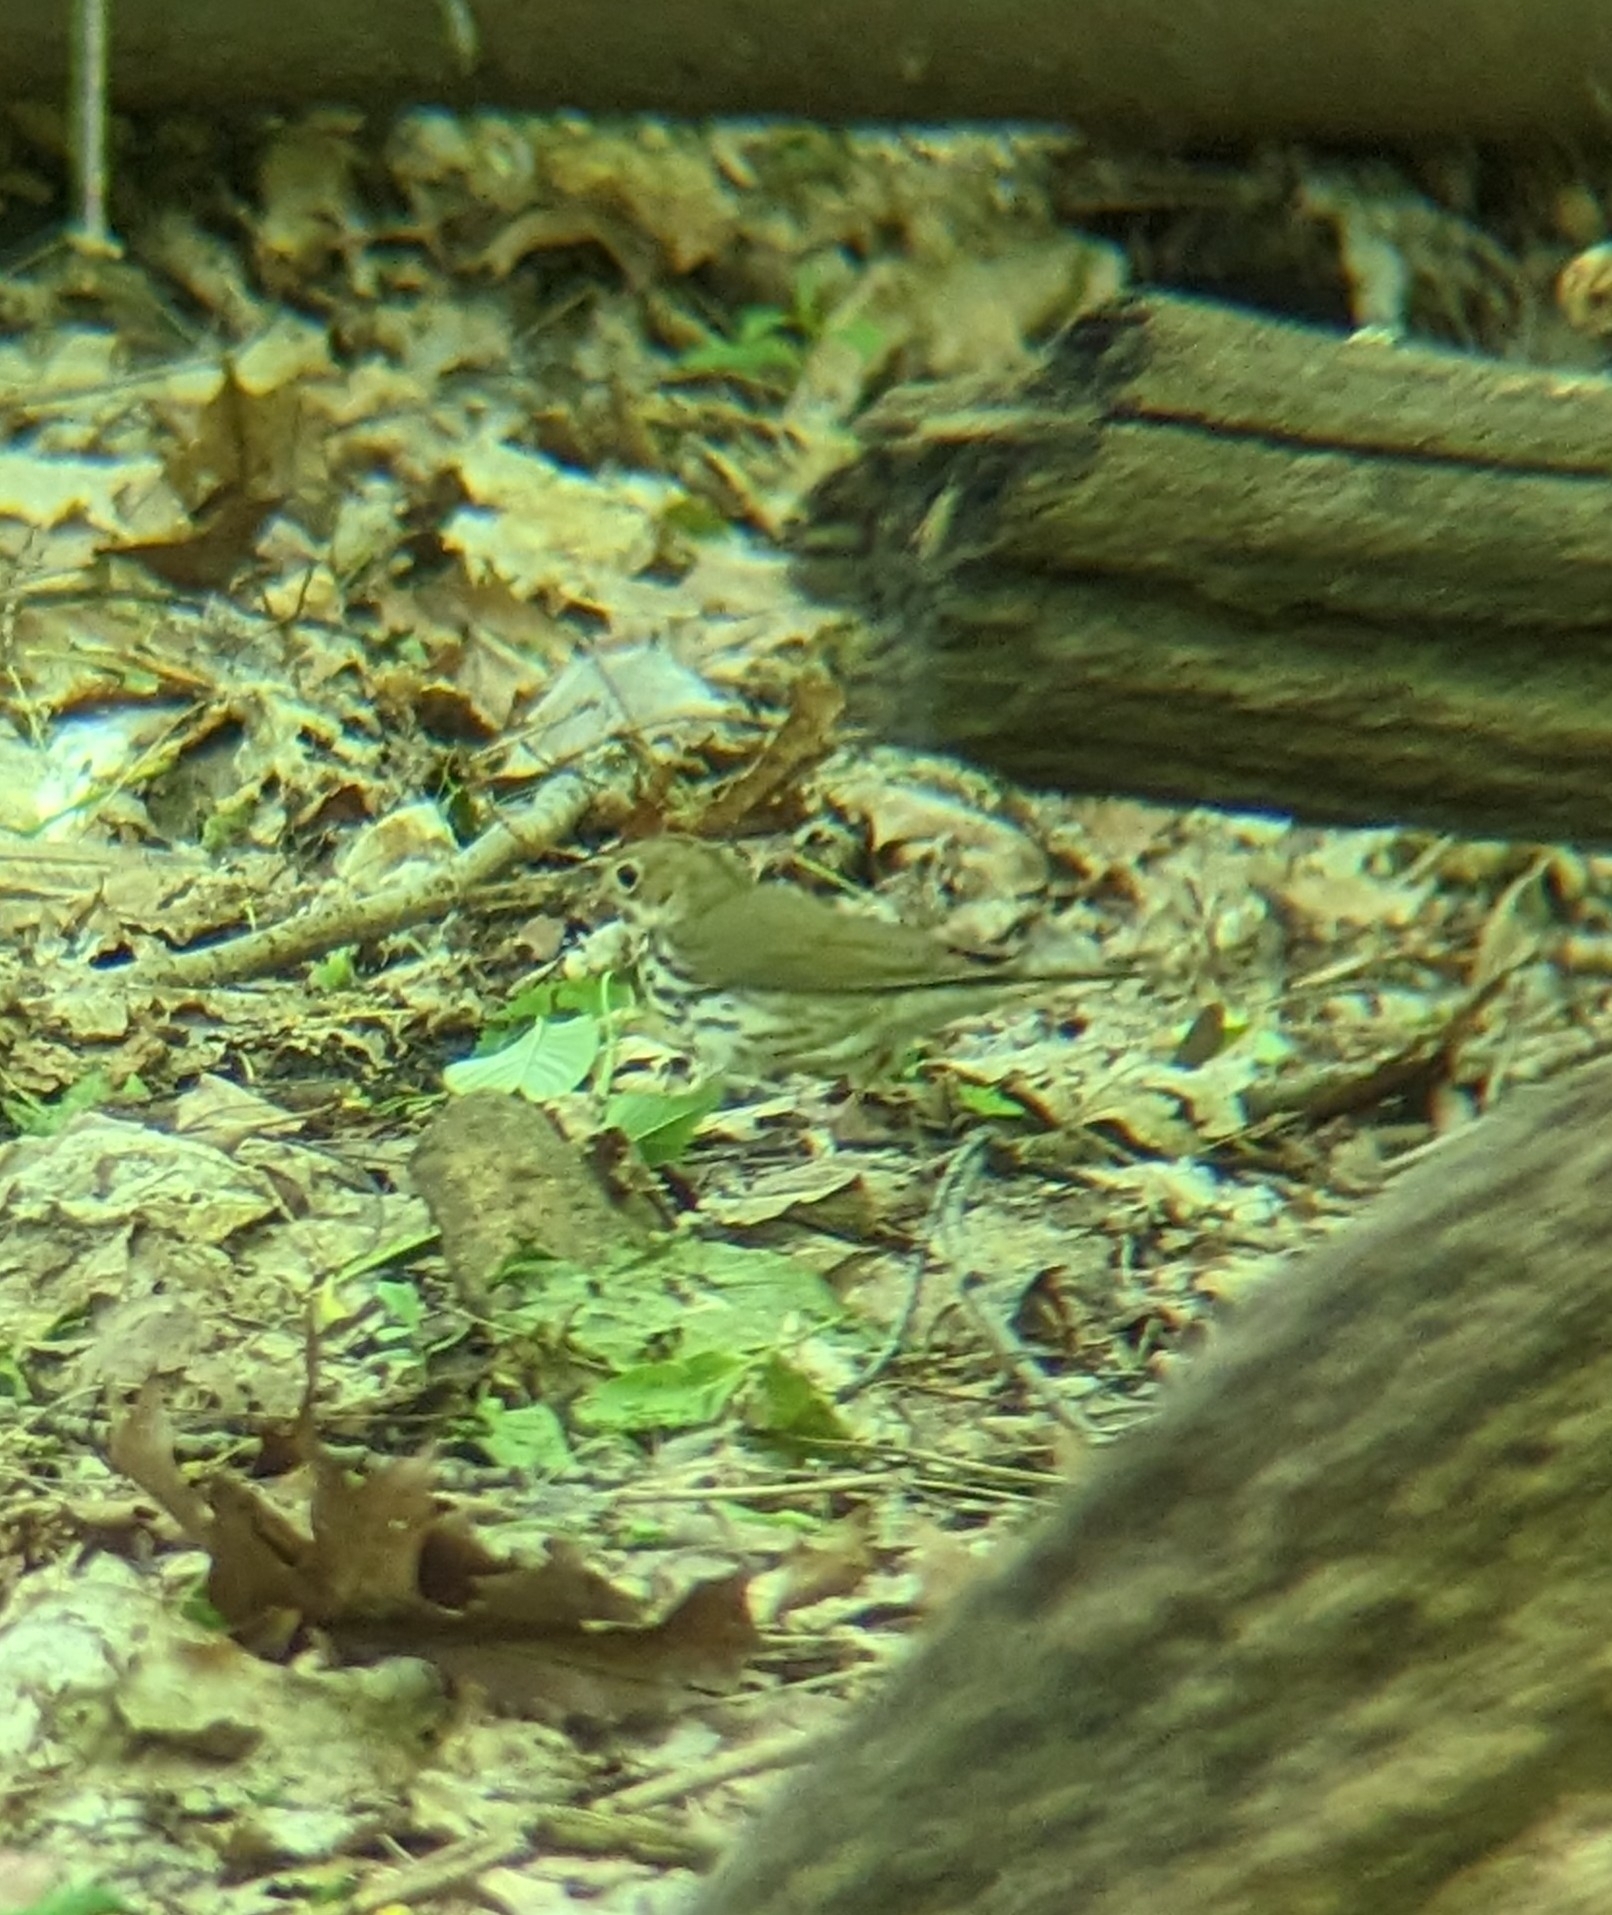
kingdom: Animalia
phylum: Chordata
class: Aves
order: Passeriformes
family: Parulidae
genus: Seiurus
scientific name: Seiurus aurocapilla
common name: Ovenbird
